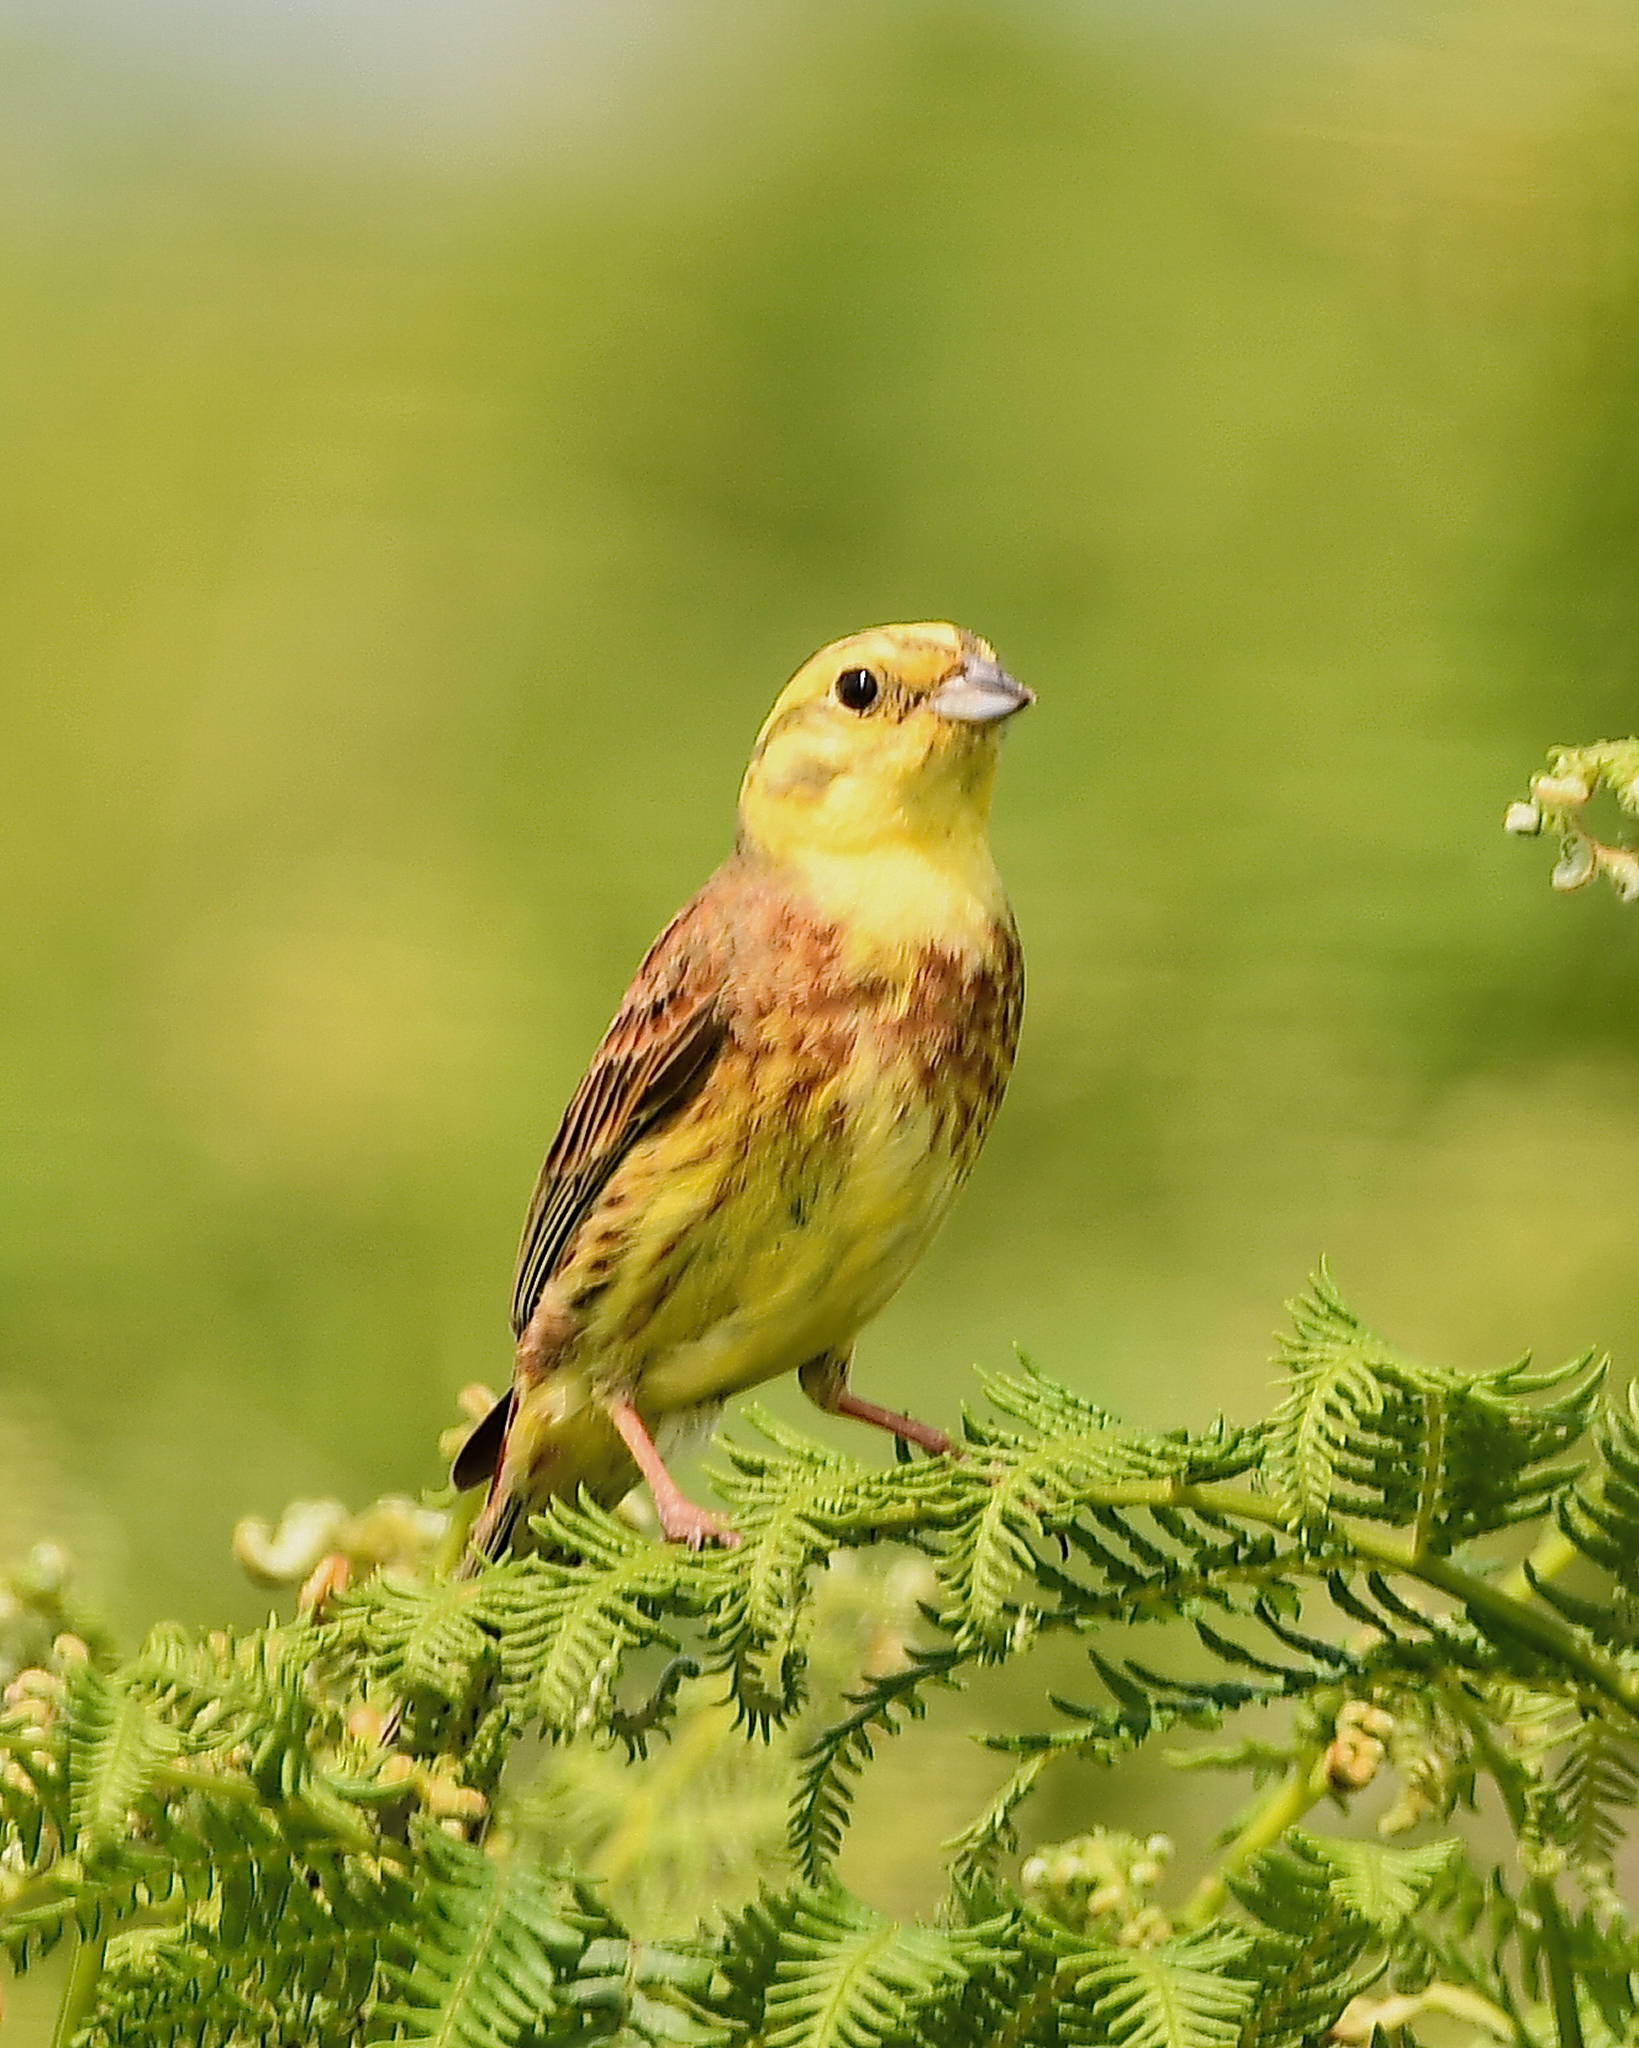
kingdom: Animalia
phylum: Chordata
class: Aves
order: Passeriformes
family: Emberizidae
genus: Emberiza
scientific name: Emberiza citrinella
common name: Yellowhammer
